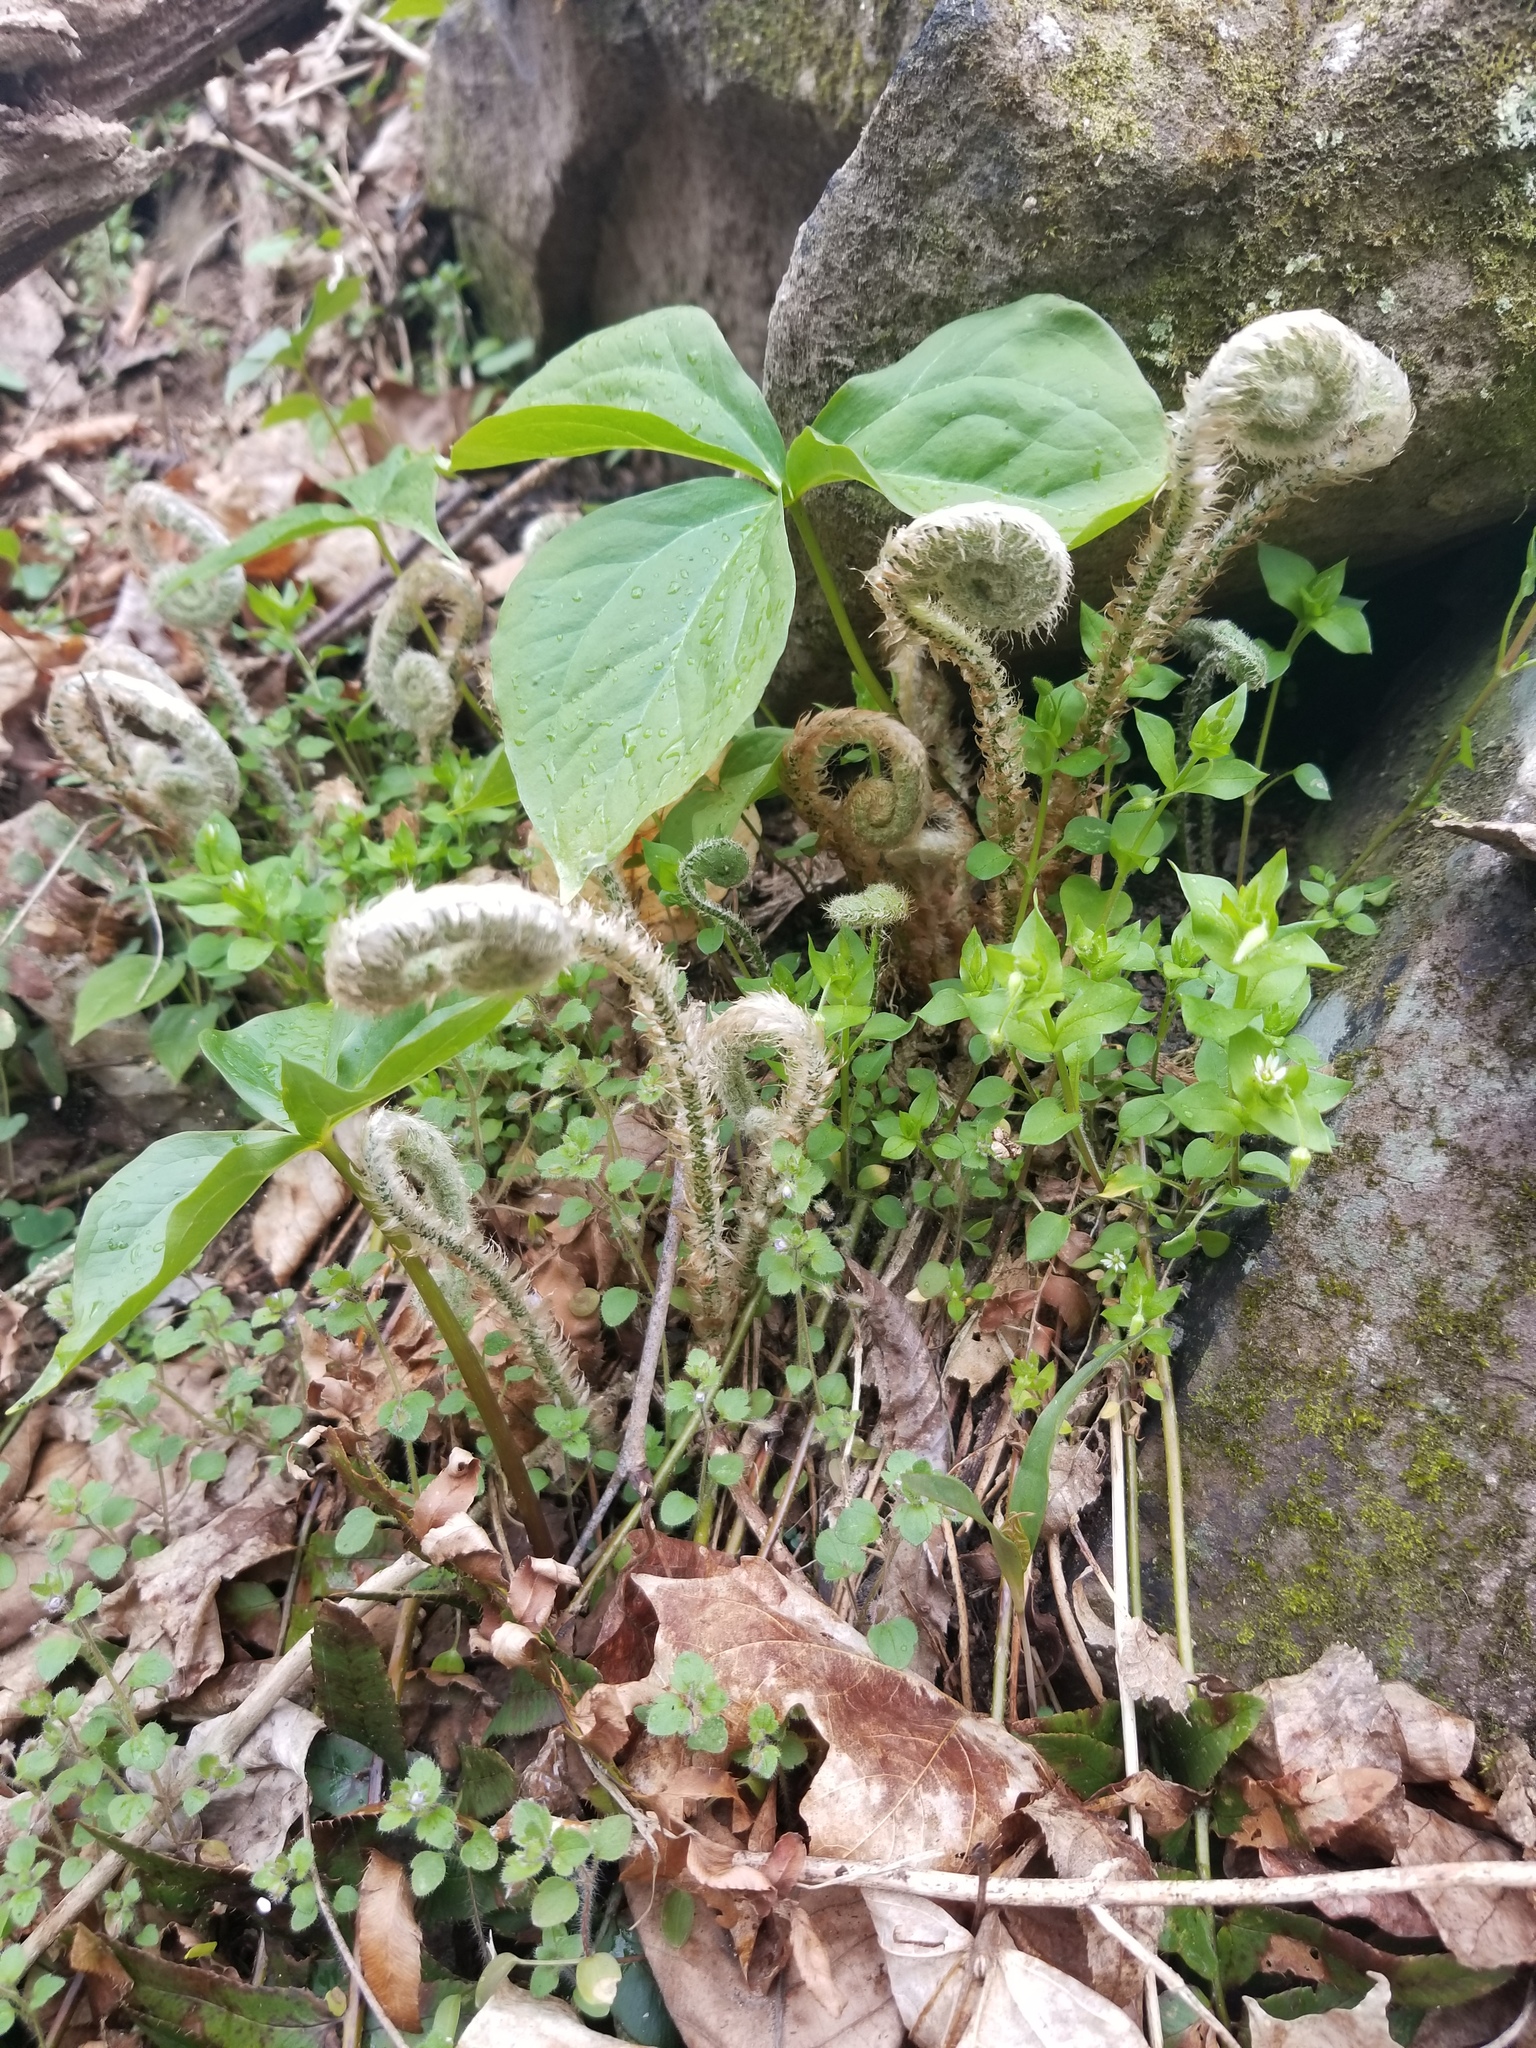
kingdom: Plantae
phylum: Tracheophyta
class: Polypodiopsida
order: Polypodiales
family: Dryopteridaceae
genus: Polystichum
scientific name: Polystichum acrostichoides
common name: Christmas fern
